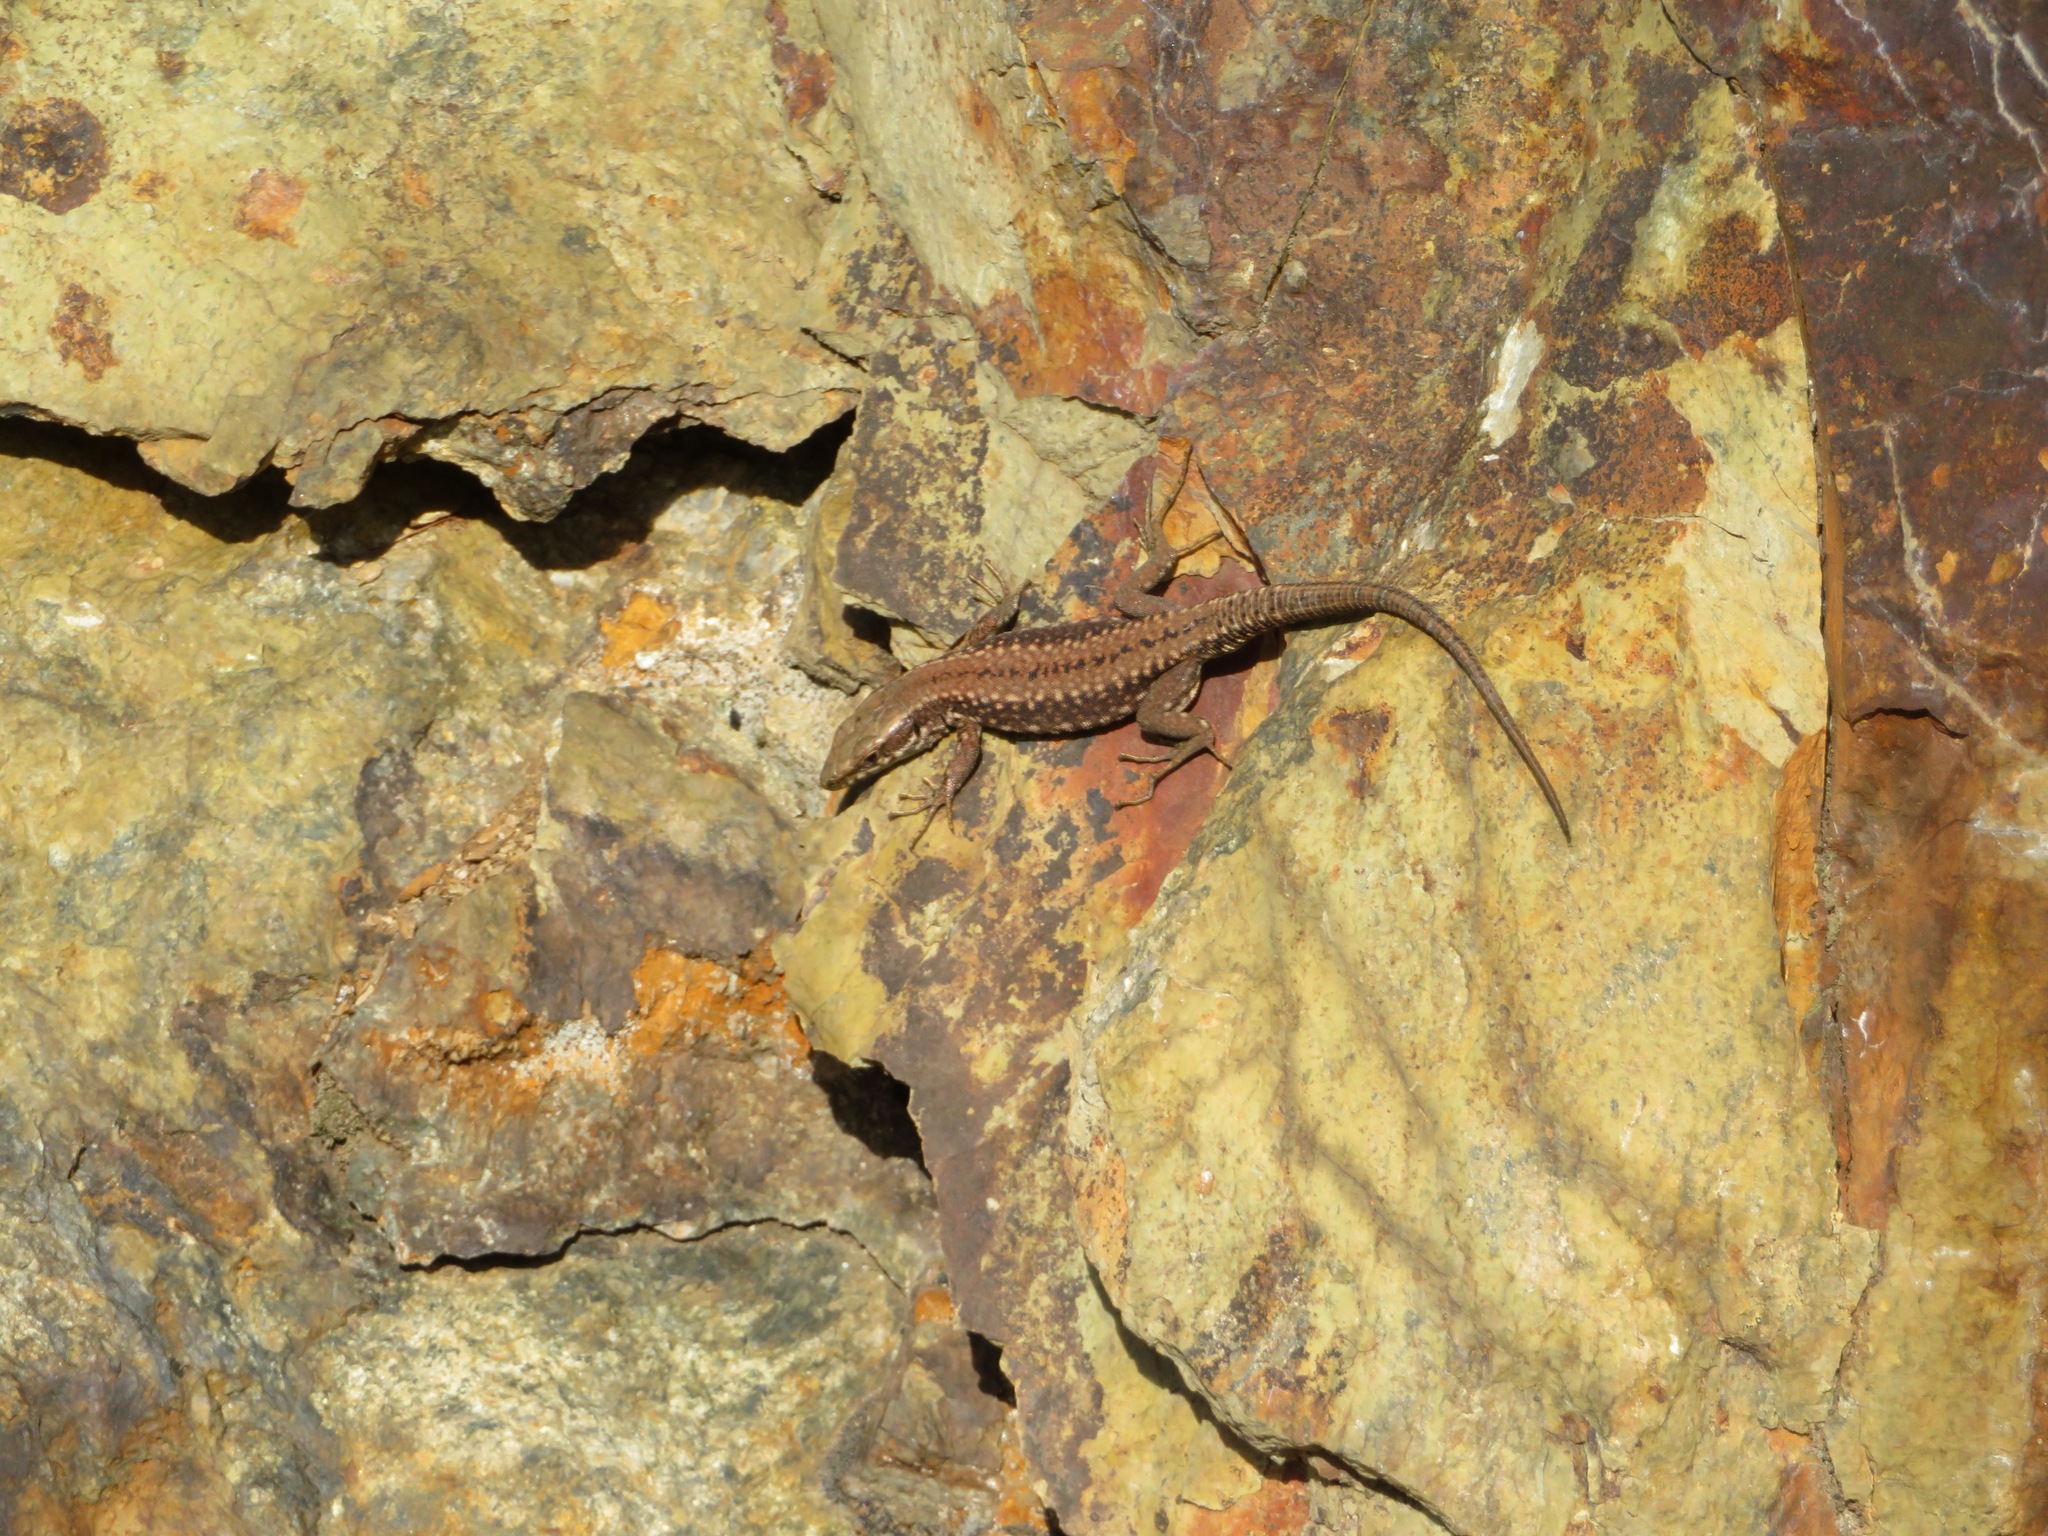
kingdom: Animalia
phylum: Chordata
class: Squamata
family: Lacertidae
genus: Podarcis
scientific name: Podarcis muralis
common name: Common wall lizard
